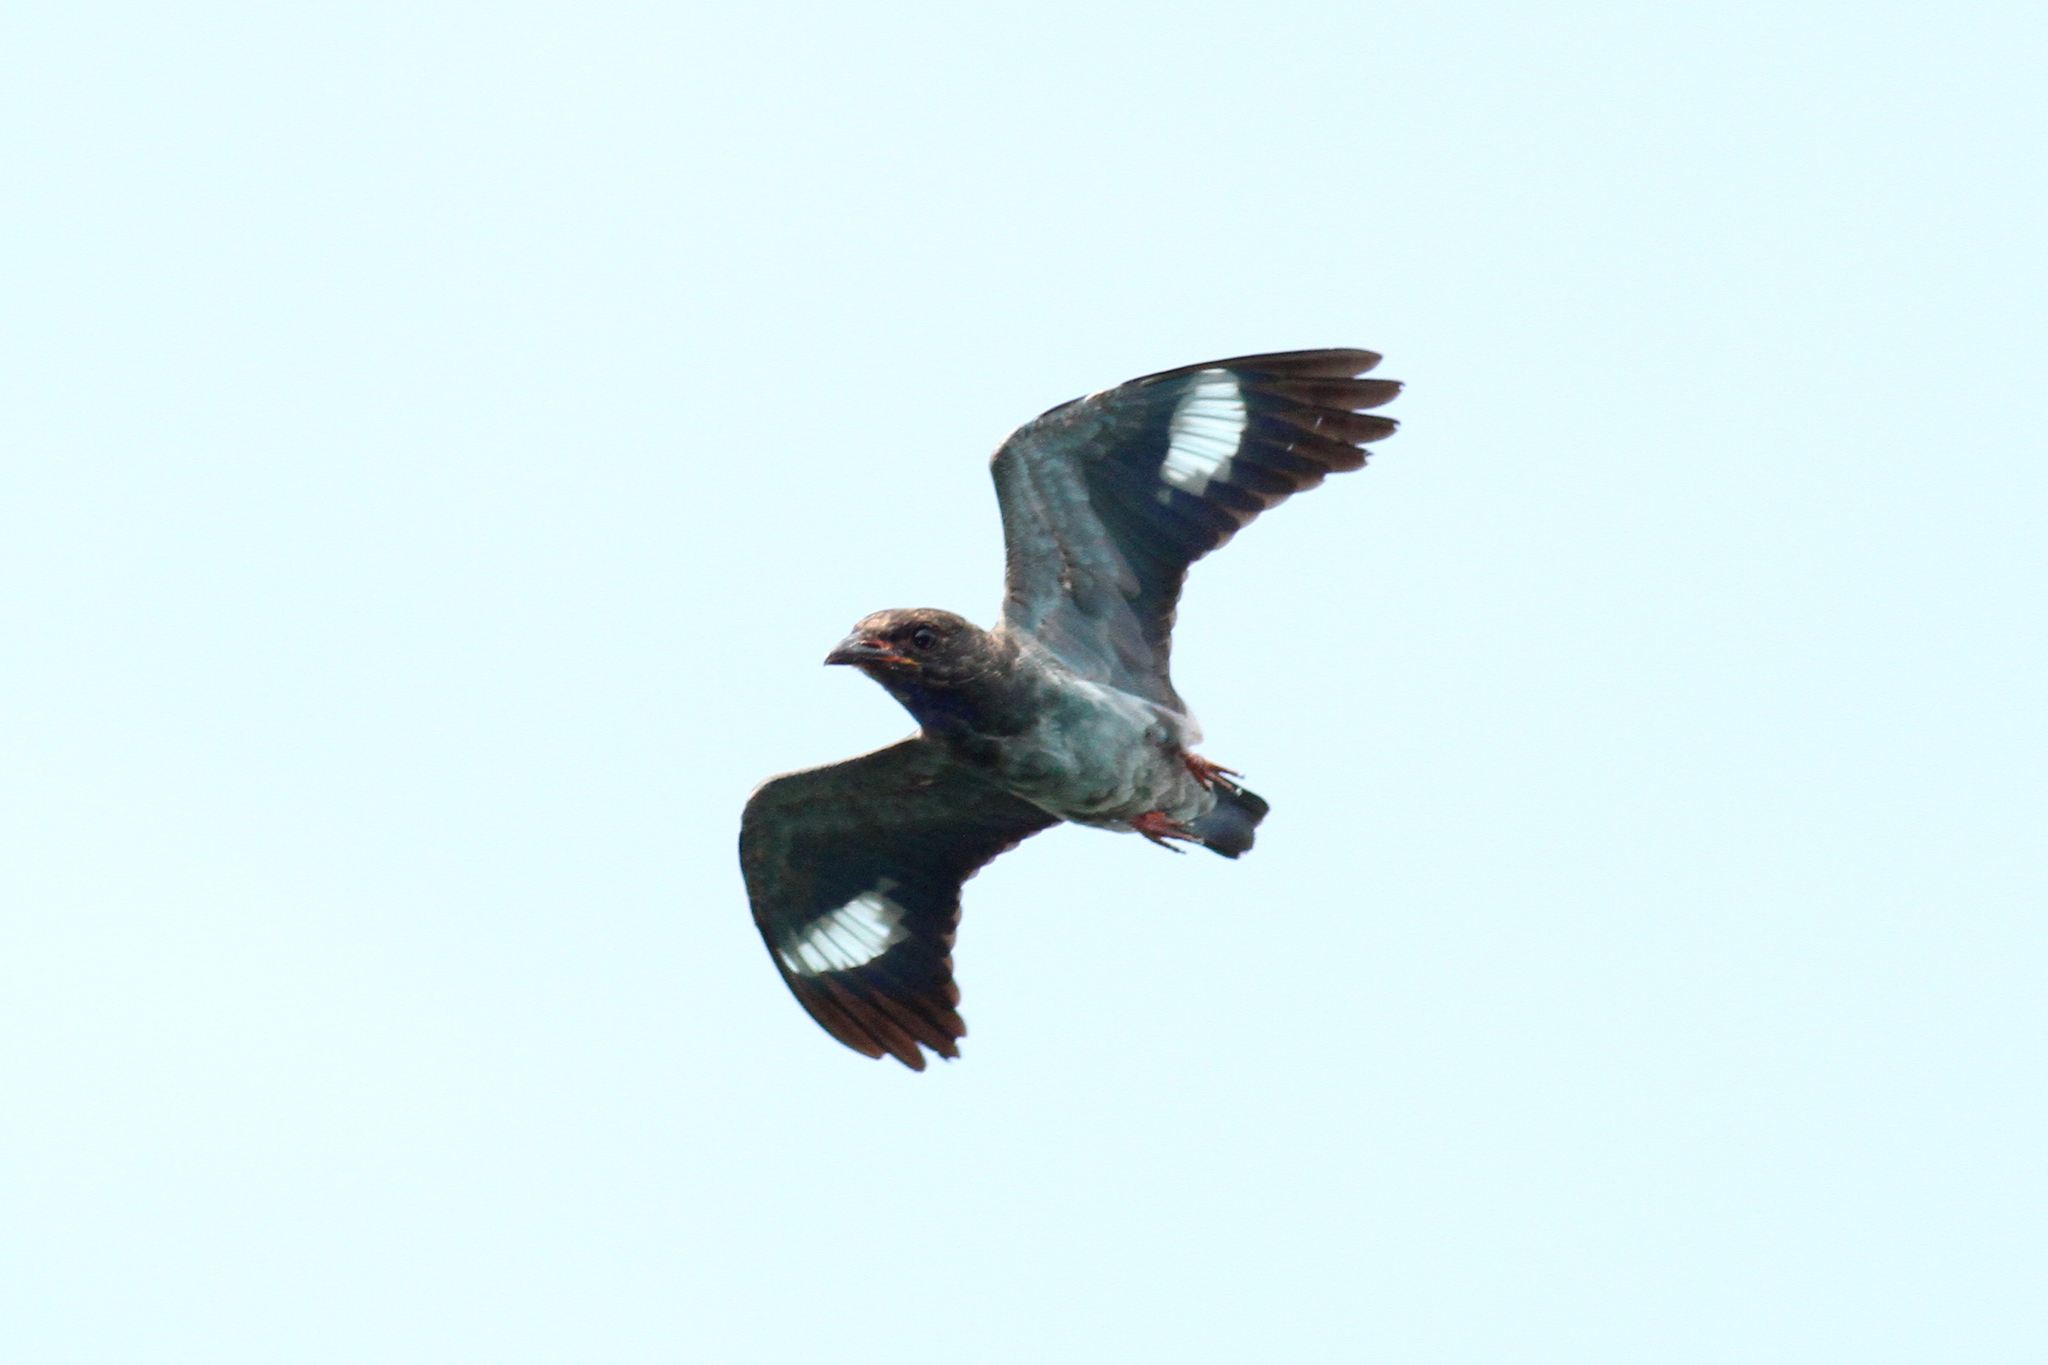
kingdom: Animalia
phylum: Chordata
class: Aves
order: Coraciiformes
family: Coraciidae
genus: Eurystomus
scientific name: Eurystomus orientalis
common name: Oriental dollarbird
